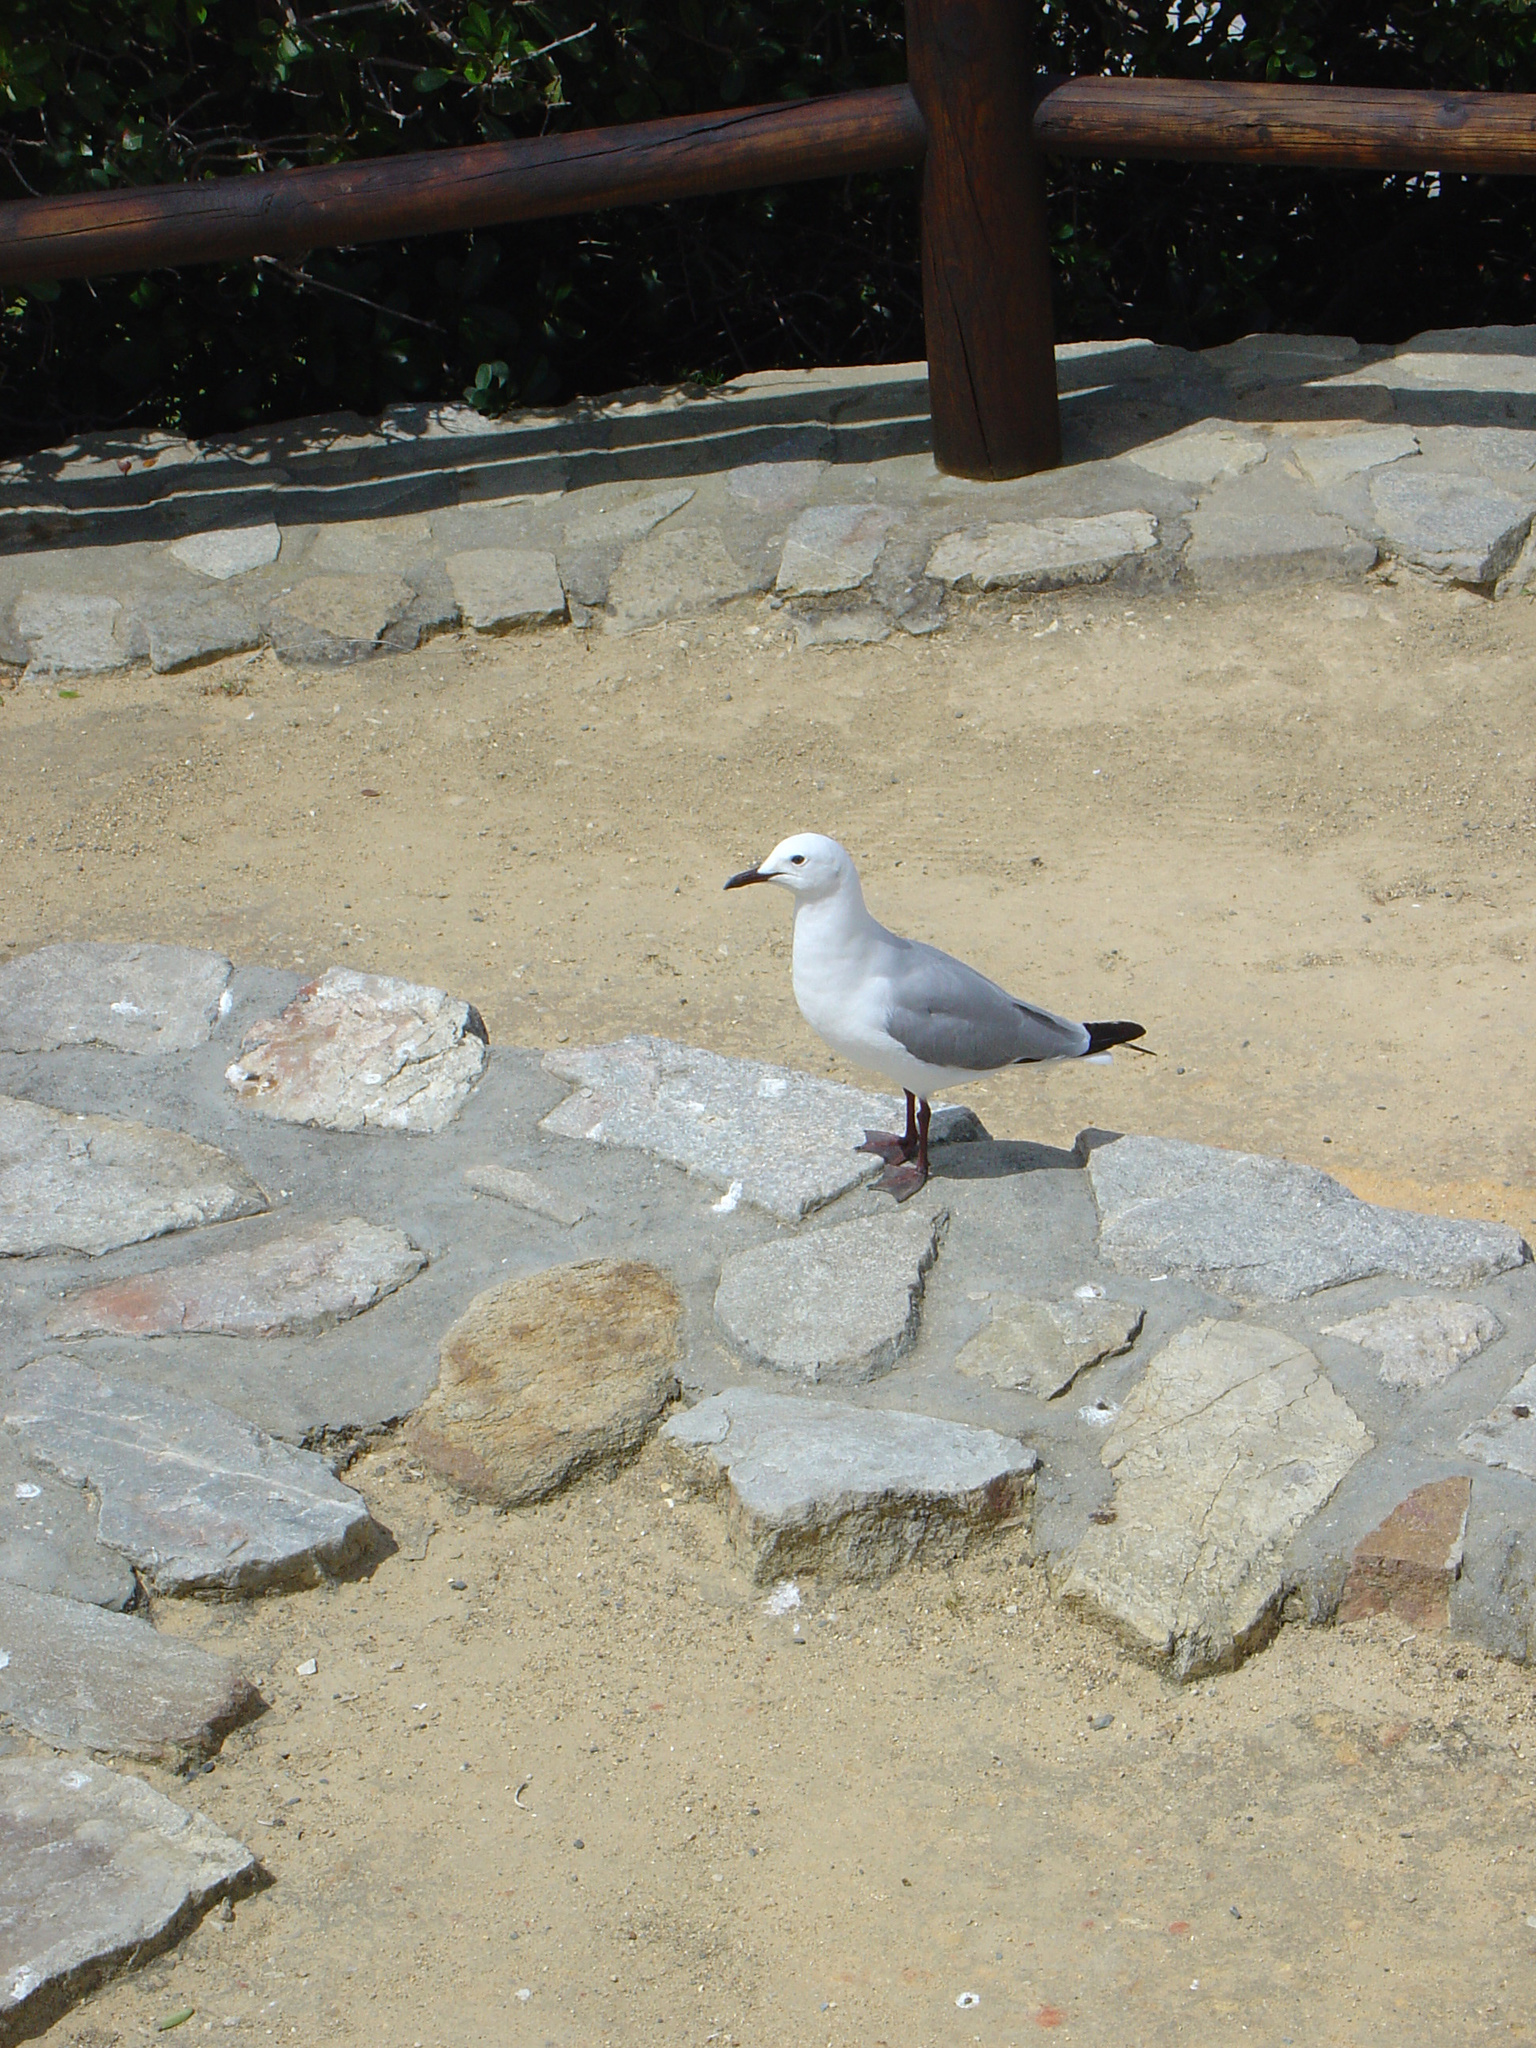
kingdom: Animalia
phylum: Chordata
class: Aves
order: Charadriiformes
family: Laridae
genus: Chroicocephalus
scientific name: Chroicocephalus hartlaubii
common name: Hartlaub's gull
